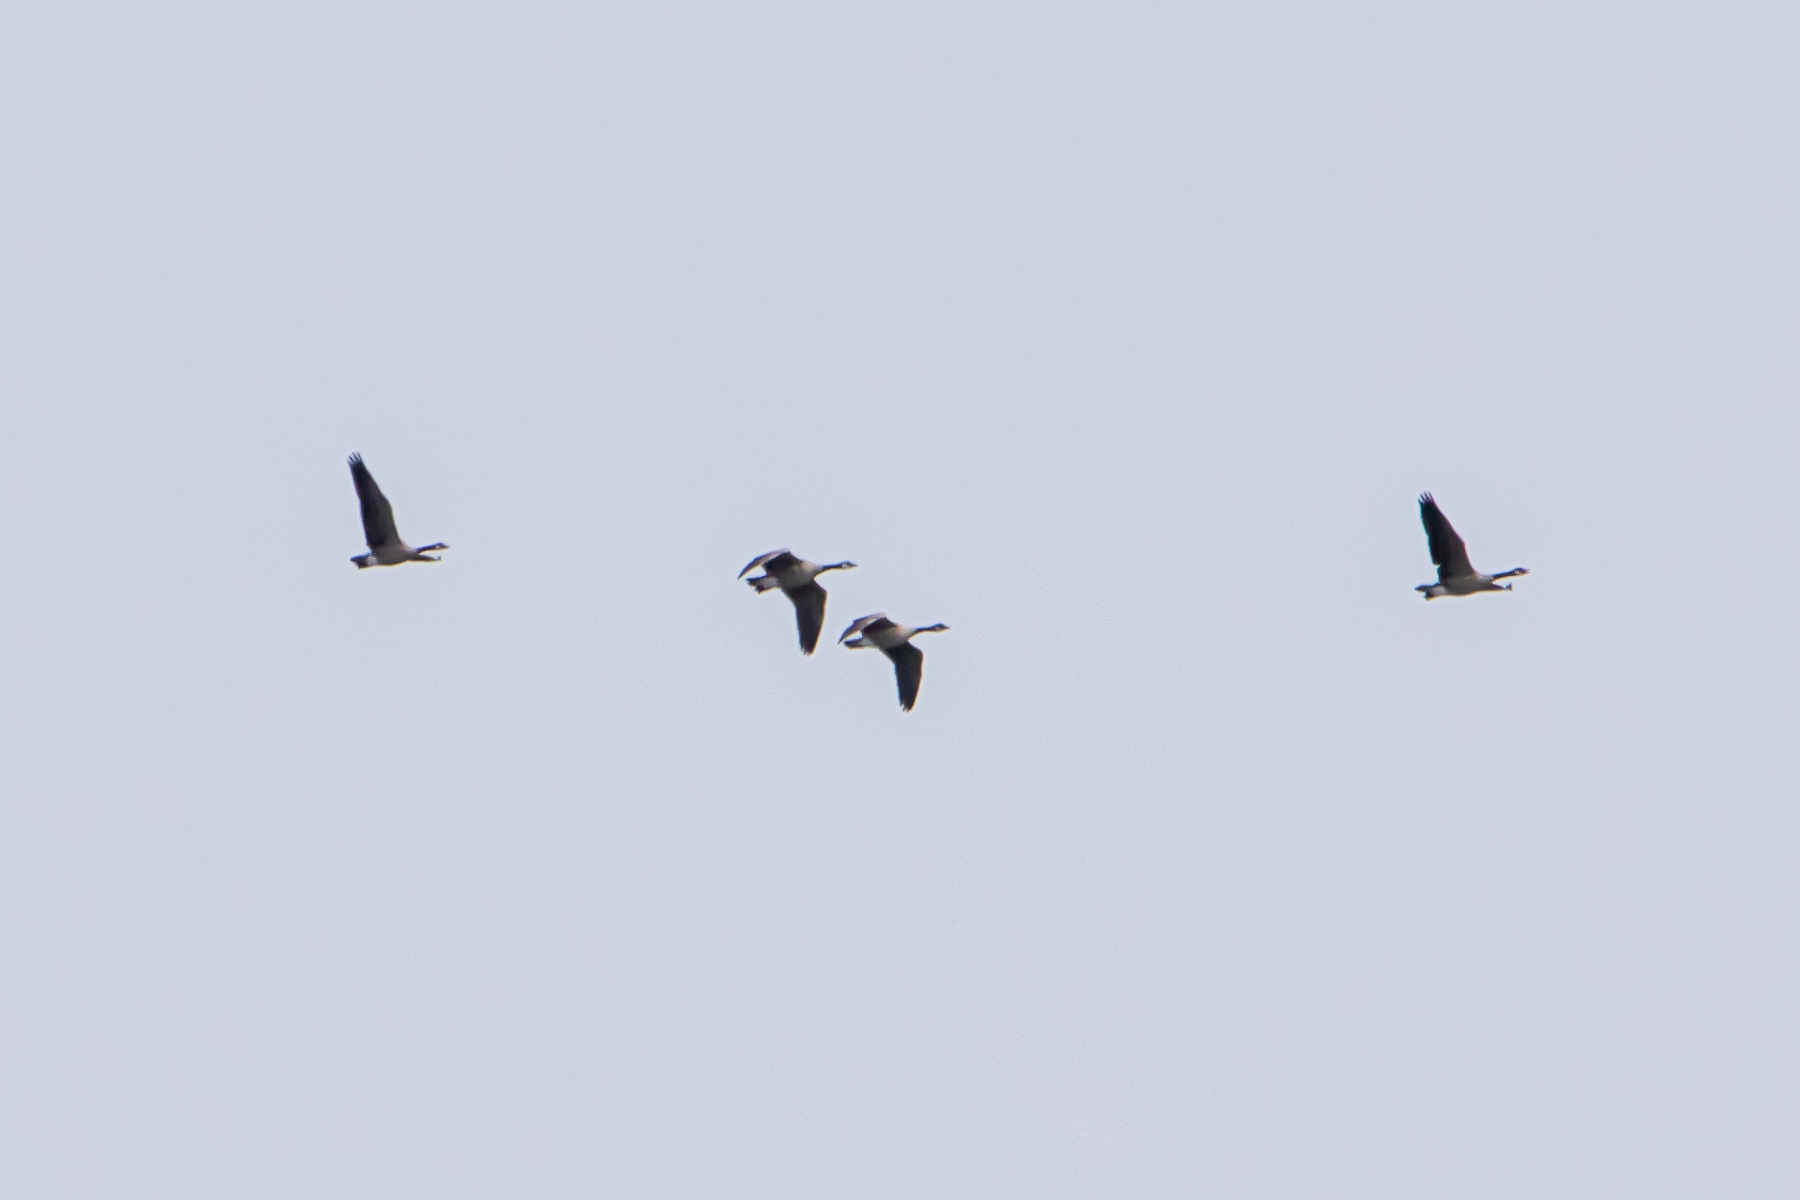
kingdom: Animalia
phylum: Chordata
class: Aves
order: Anseriformes
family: Anatidae
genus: Branta
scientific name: Branta canadensis
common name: Canada goose
